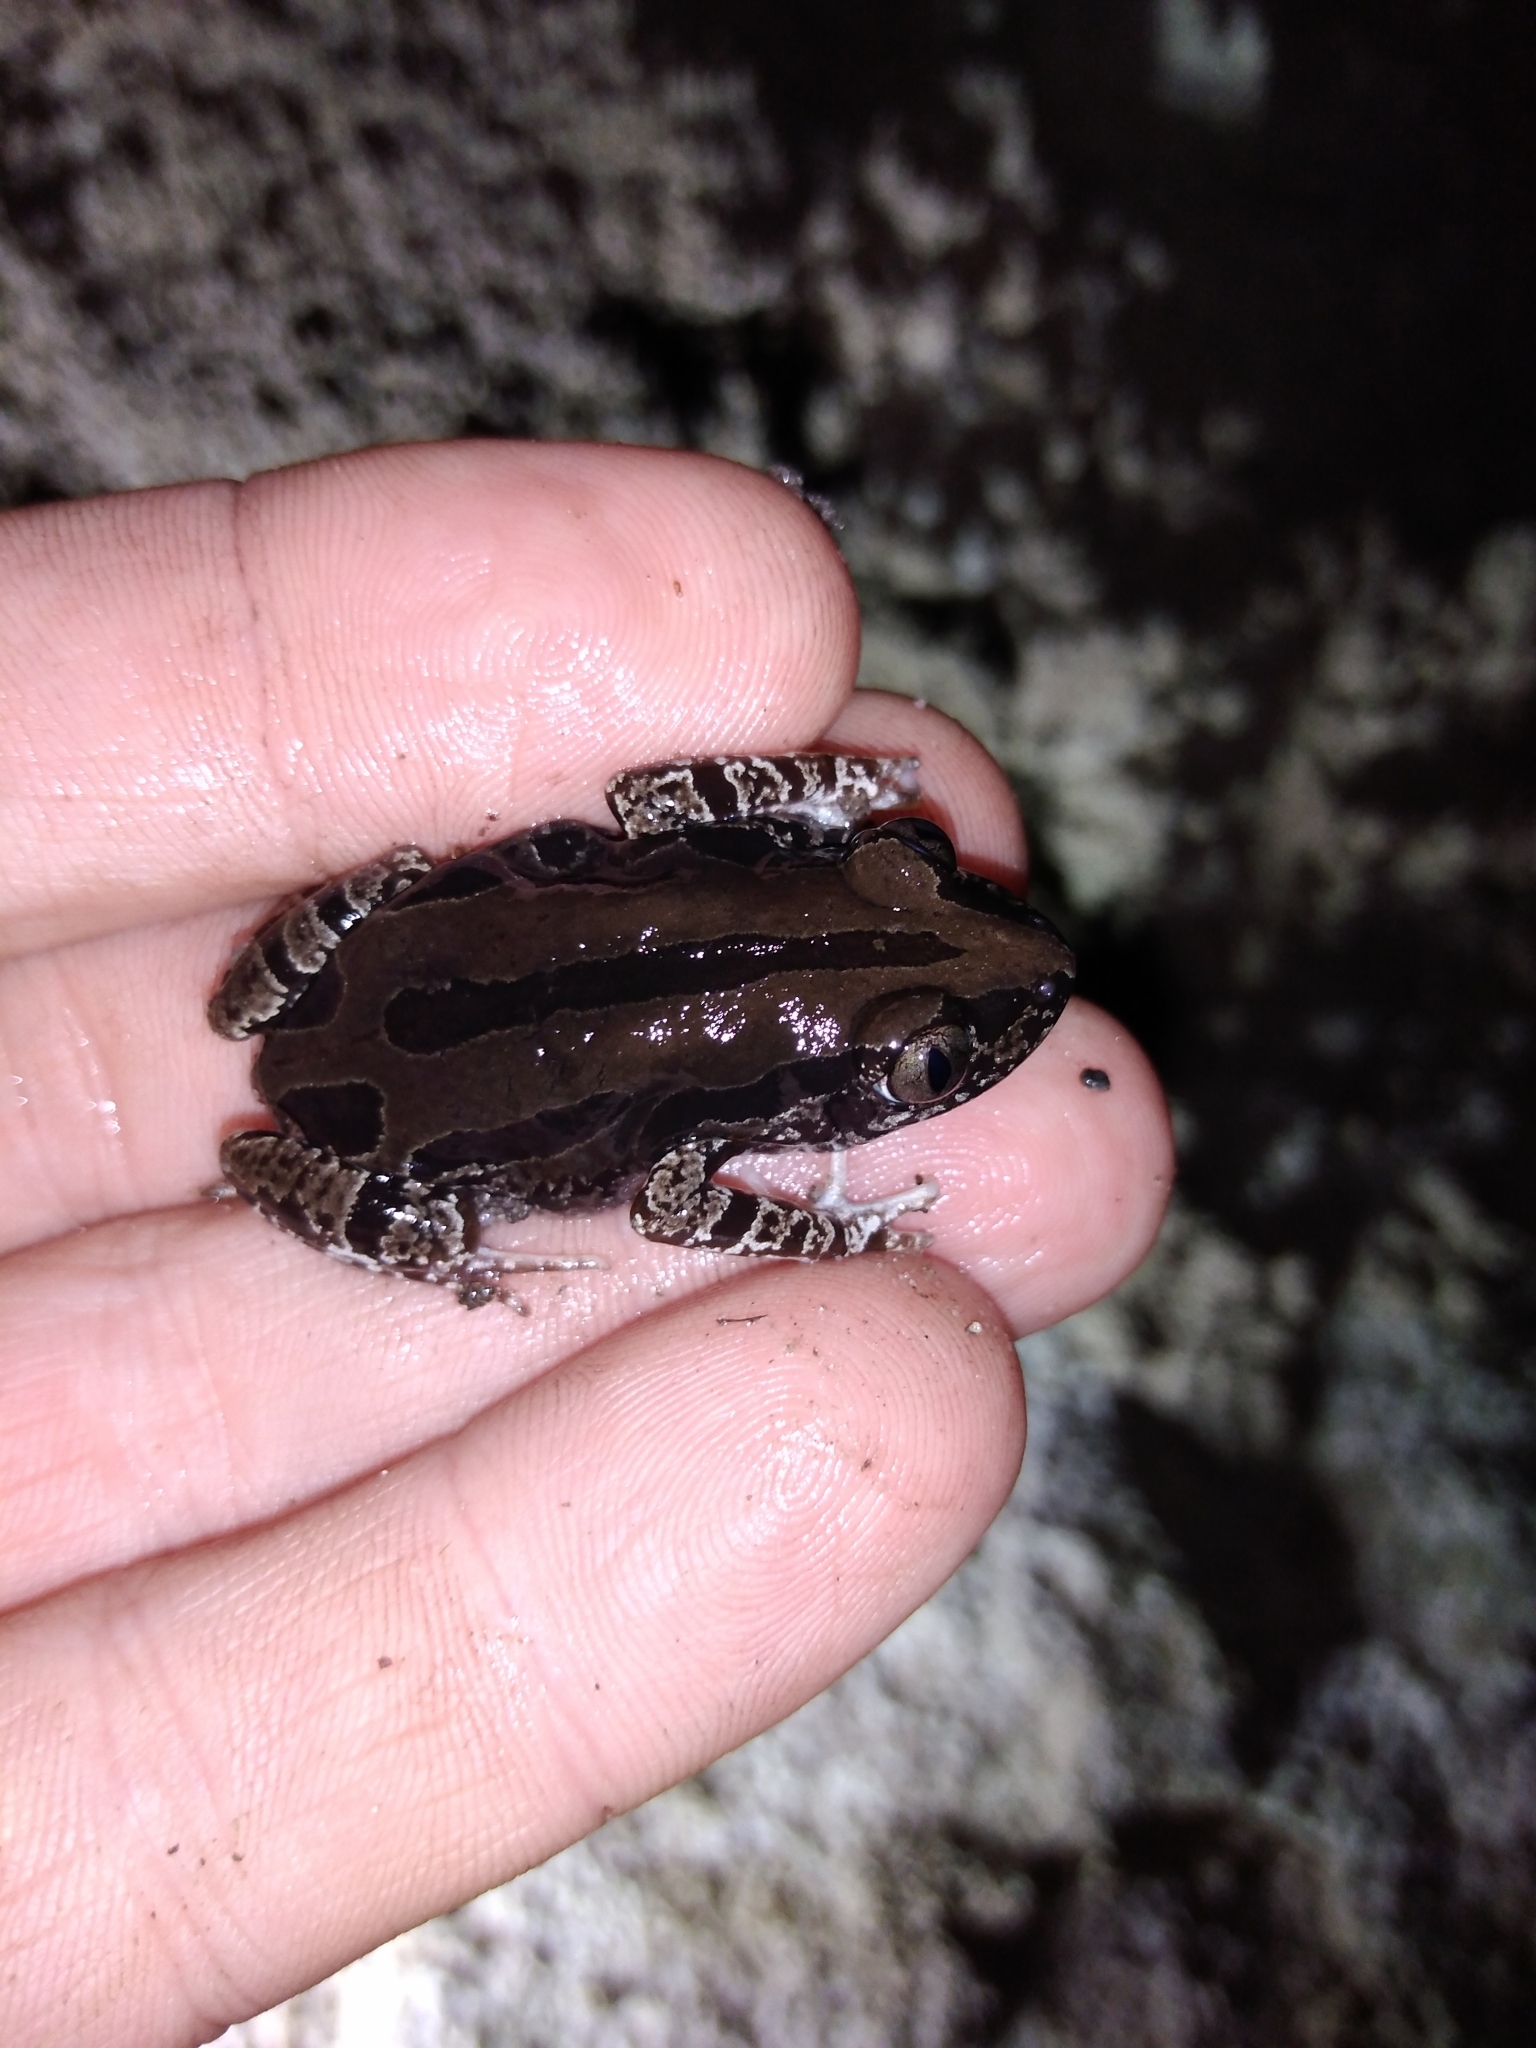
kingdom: Animalia
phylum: Chordata
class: Amphibia
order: Anura
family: Hyperoliidae
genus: Kassina
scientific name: Kassina senegalensis
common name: Senegal land frog
